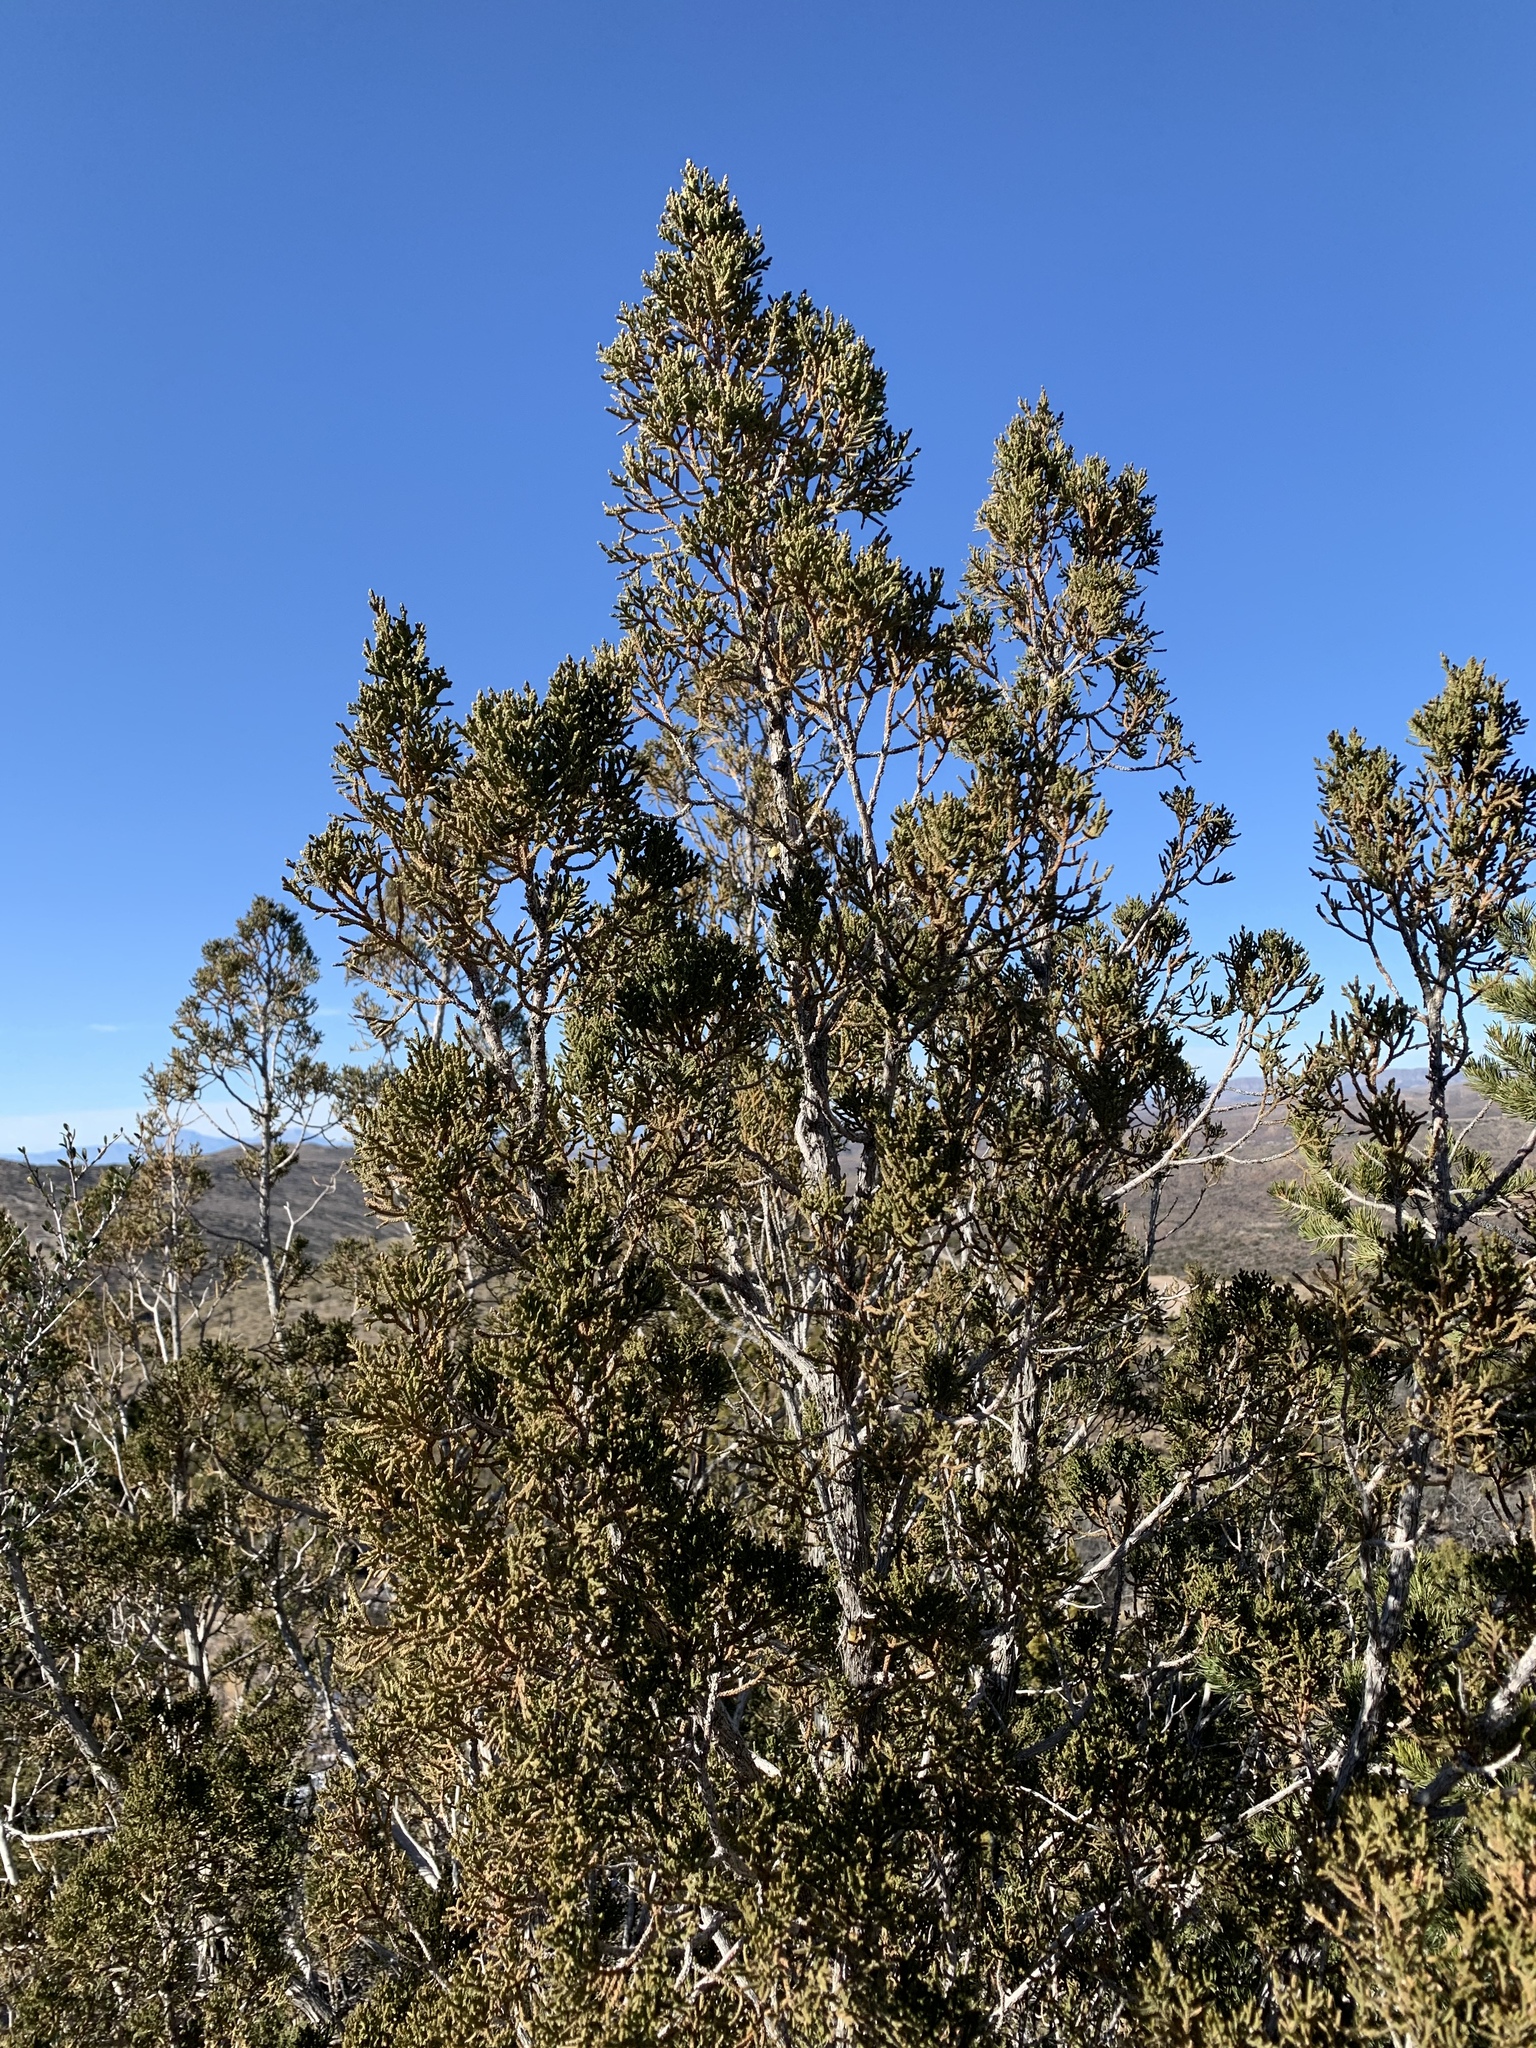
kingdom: Plantae
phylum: Tracheophyta
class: Pinopsida
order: Pinales
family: Cupressaceae
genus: Juniperus
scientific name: Juniperus monosperma
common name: One-seed juniper
